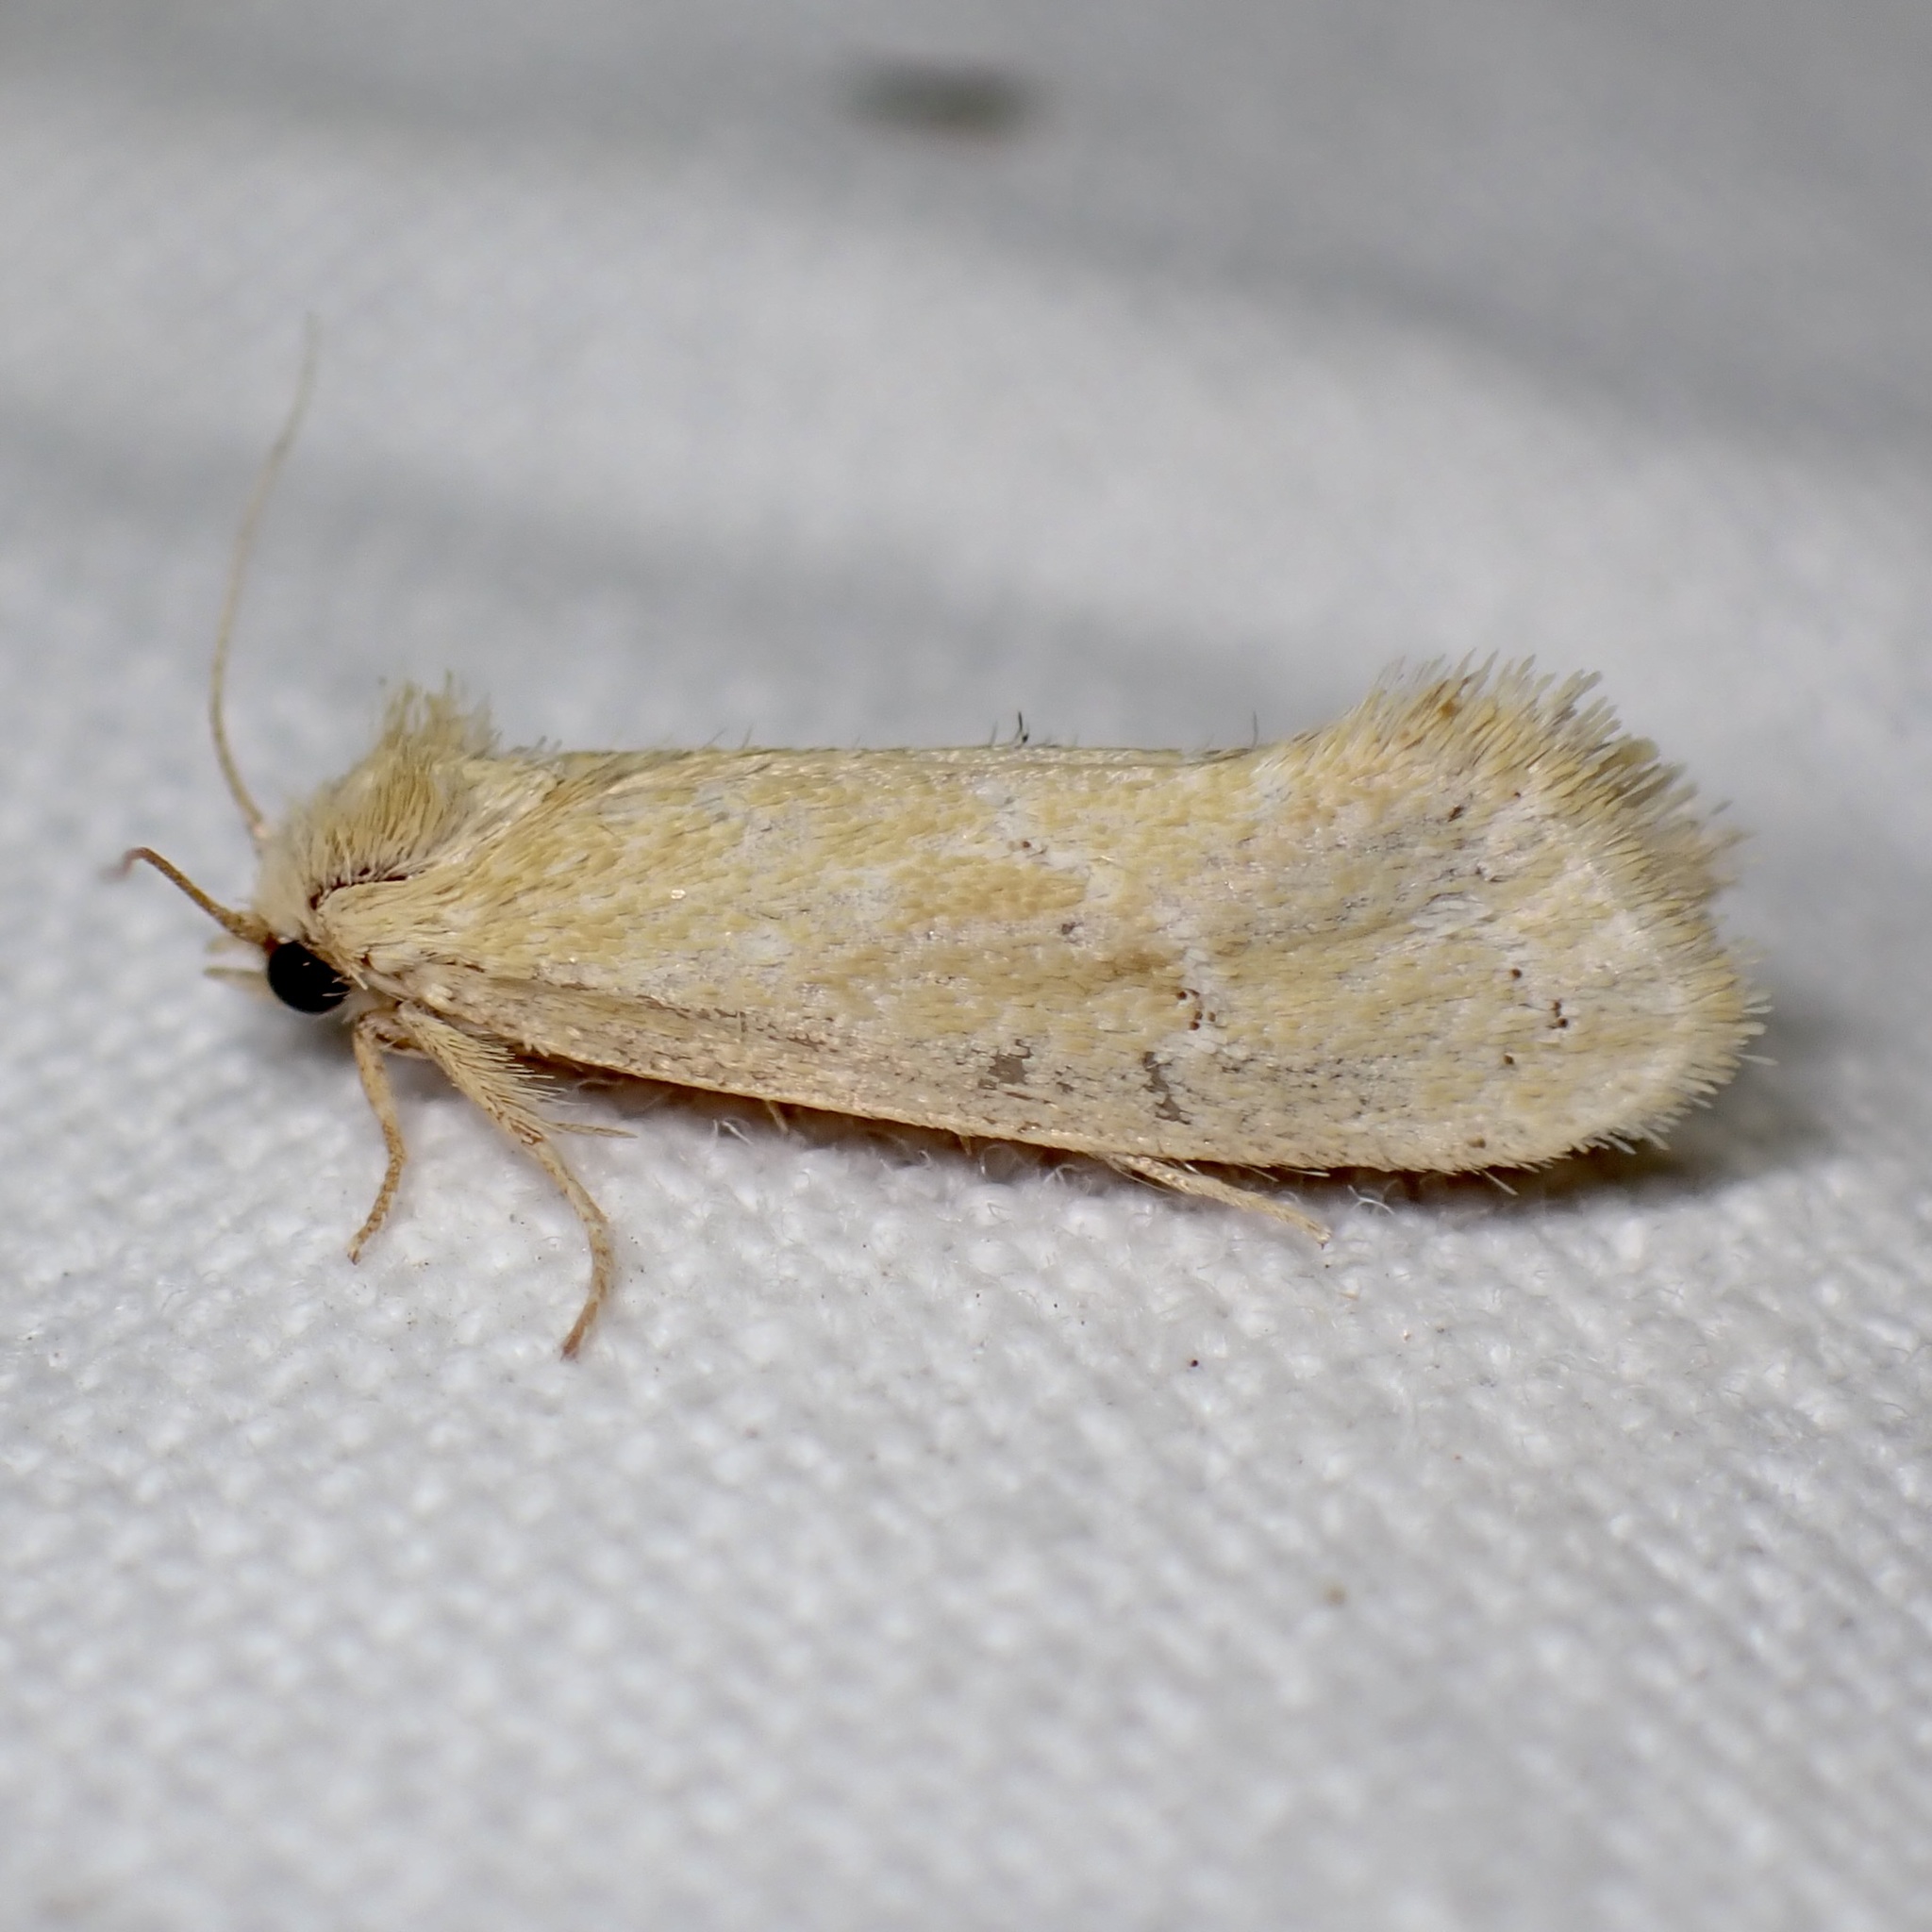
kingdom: Animalia
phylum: Arthropoda
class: Insecta
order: Lepidoptera
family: Tineidae
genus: Acrolophus
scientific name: Acrolophus laticapitana
